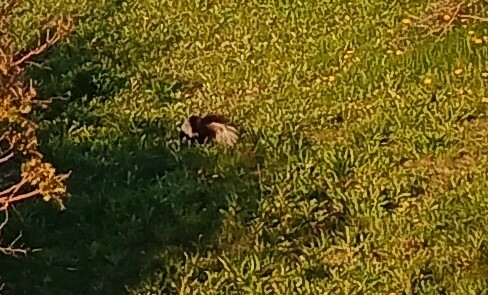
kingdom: Animalia
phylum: Chordata
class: Mammalia
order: Carnivora
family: Mephitidae
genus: Mephitis
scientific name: Mephitis mephitis
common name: Striped skunk
